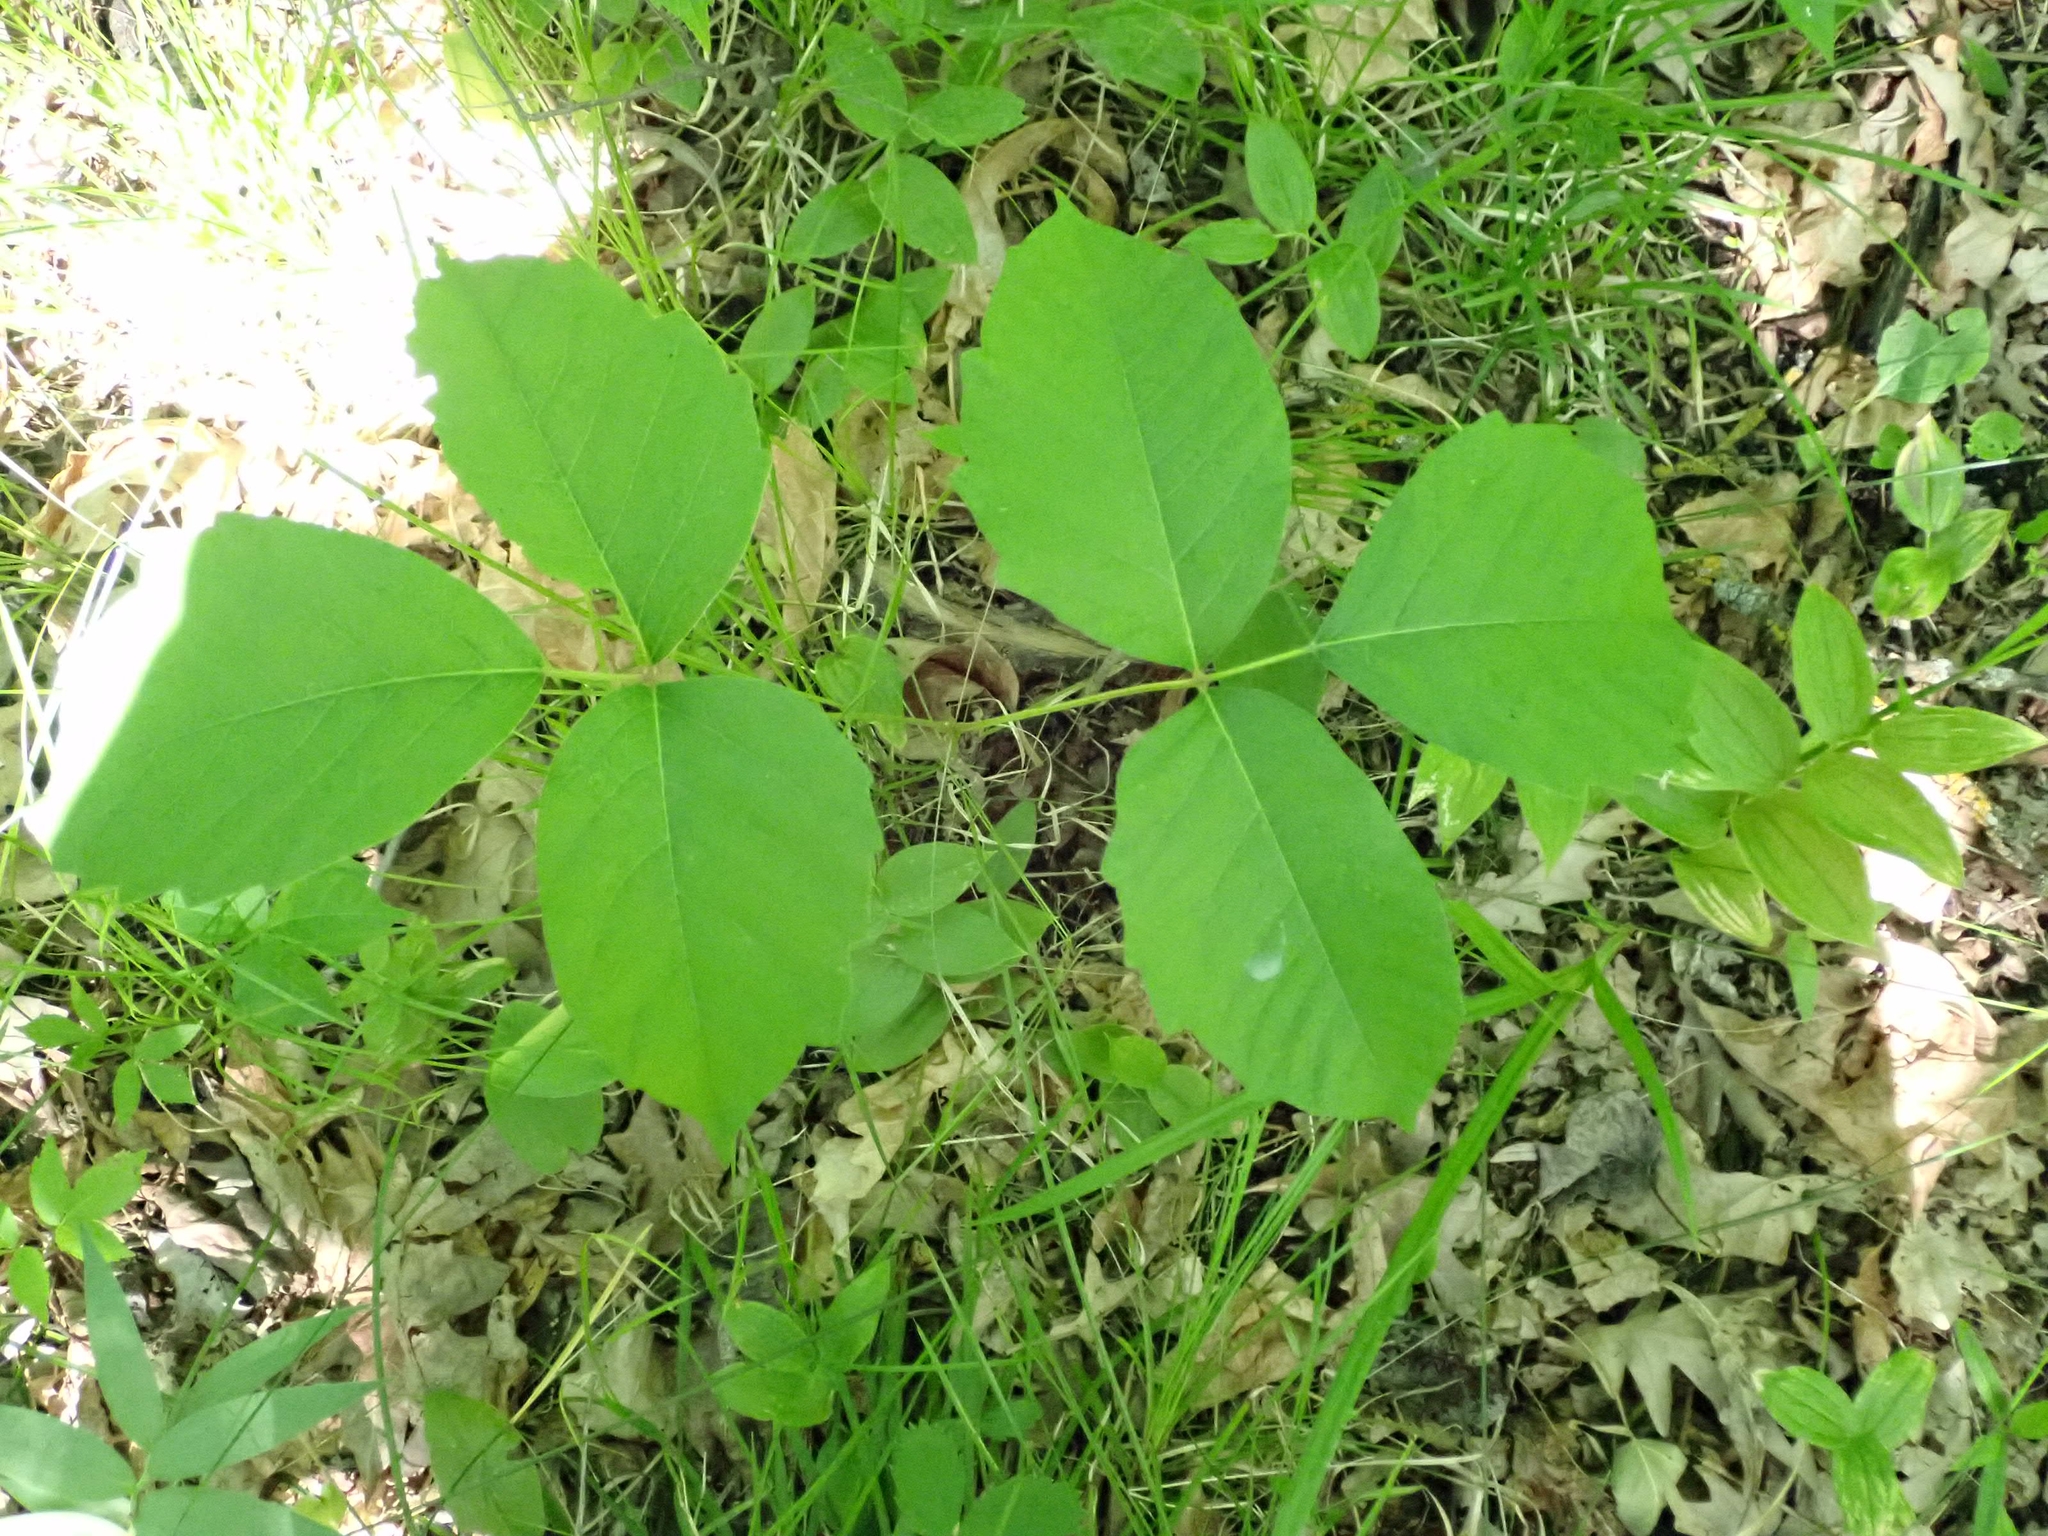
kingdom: Plantae
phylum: Tracheophyta
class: Magnoliopsida
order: Sapindales
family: Anacardiaceae
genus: Toxicodendron
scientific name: Toxicodendron rydbergii
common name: Rydberg's poison-ivy
